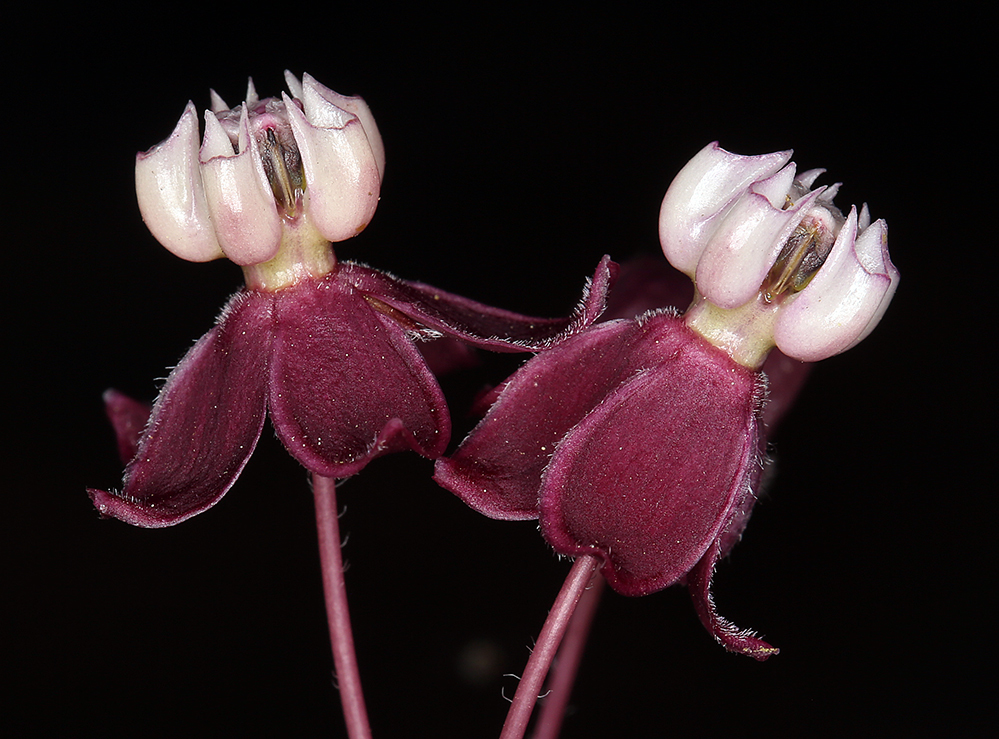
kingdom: Plantae
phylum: Tracheophyta
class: Magnoliopsida
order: Gentianales
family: Apocynaceae
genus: Asclepias
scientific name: Asclepias cordifolia
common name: Purple milkweed
